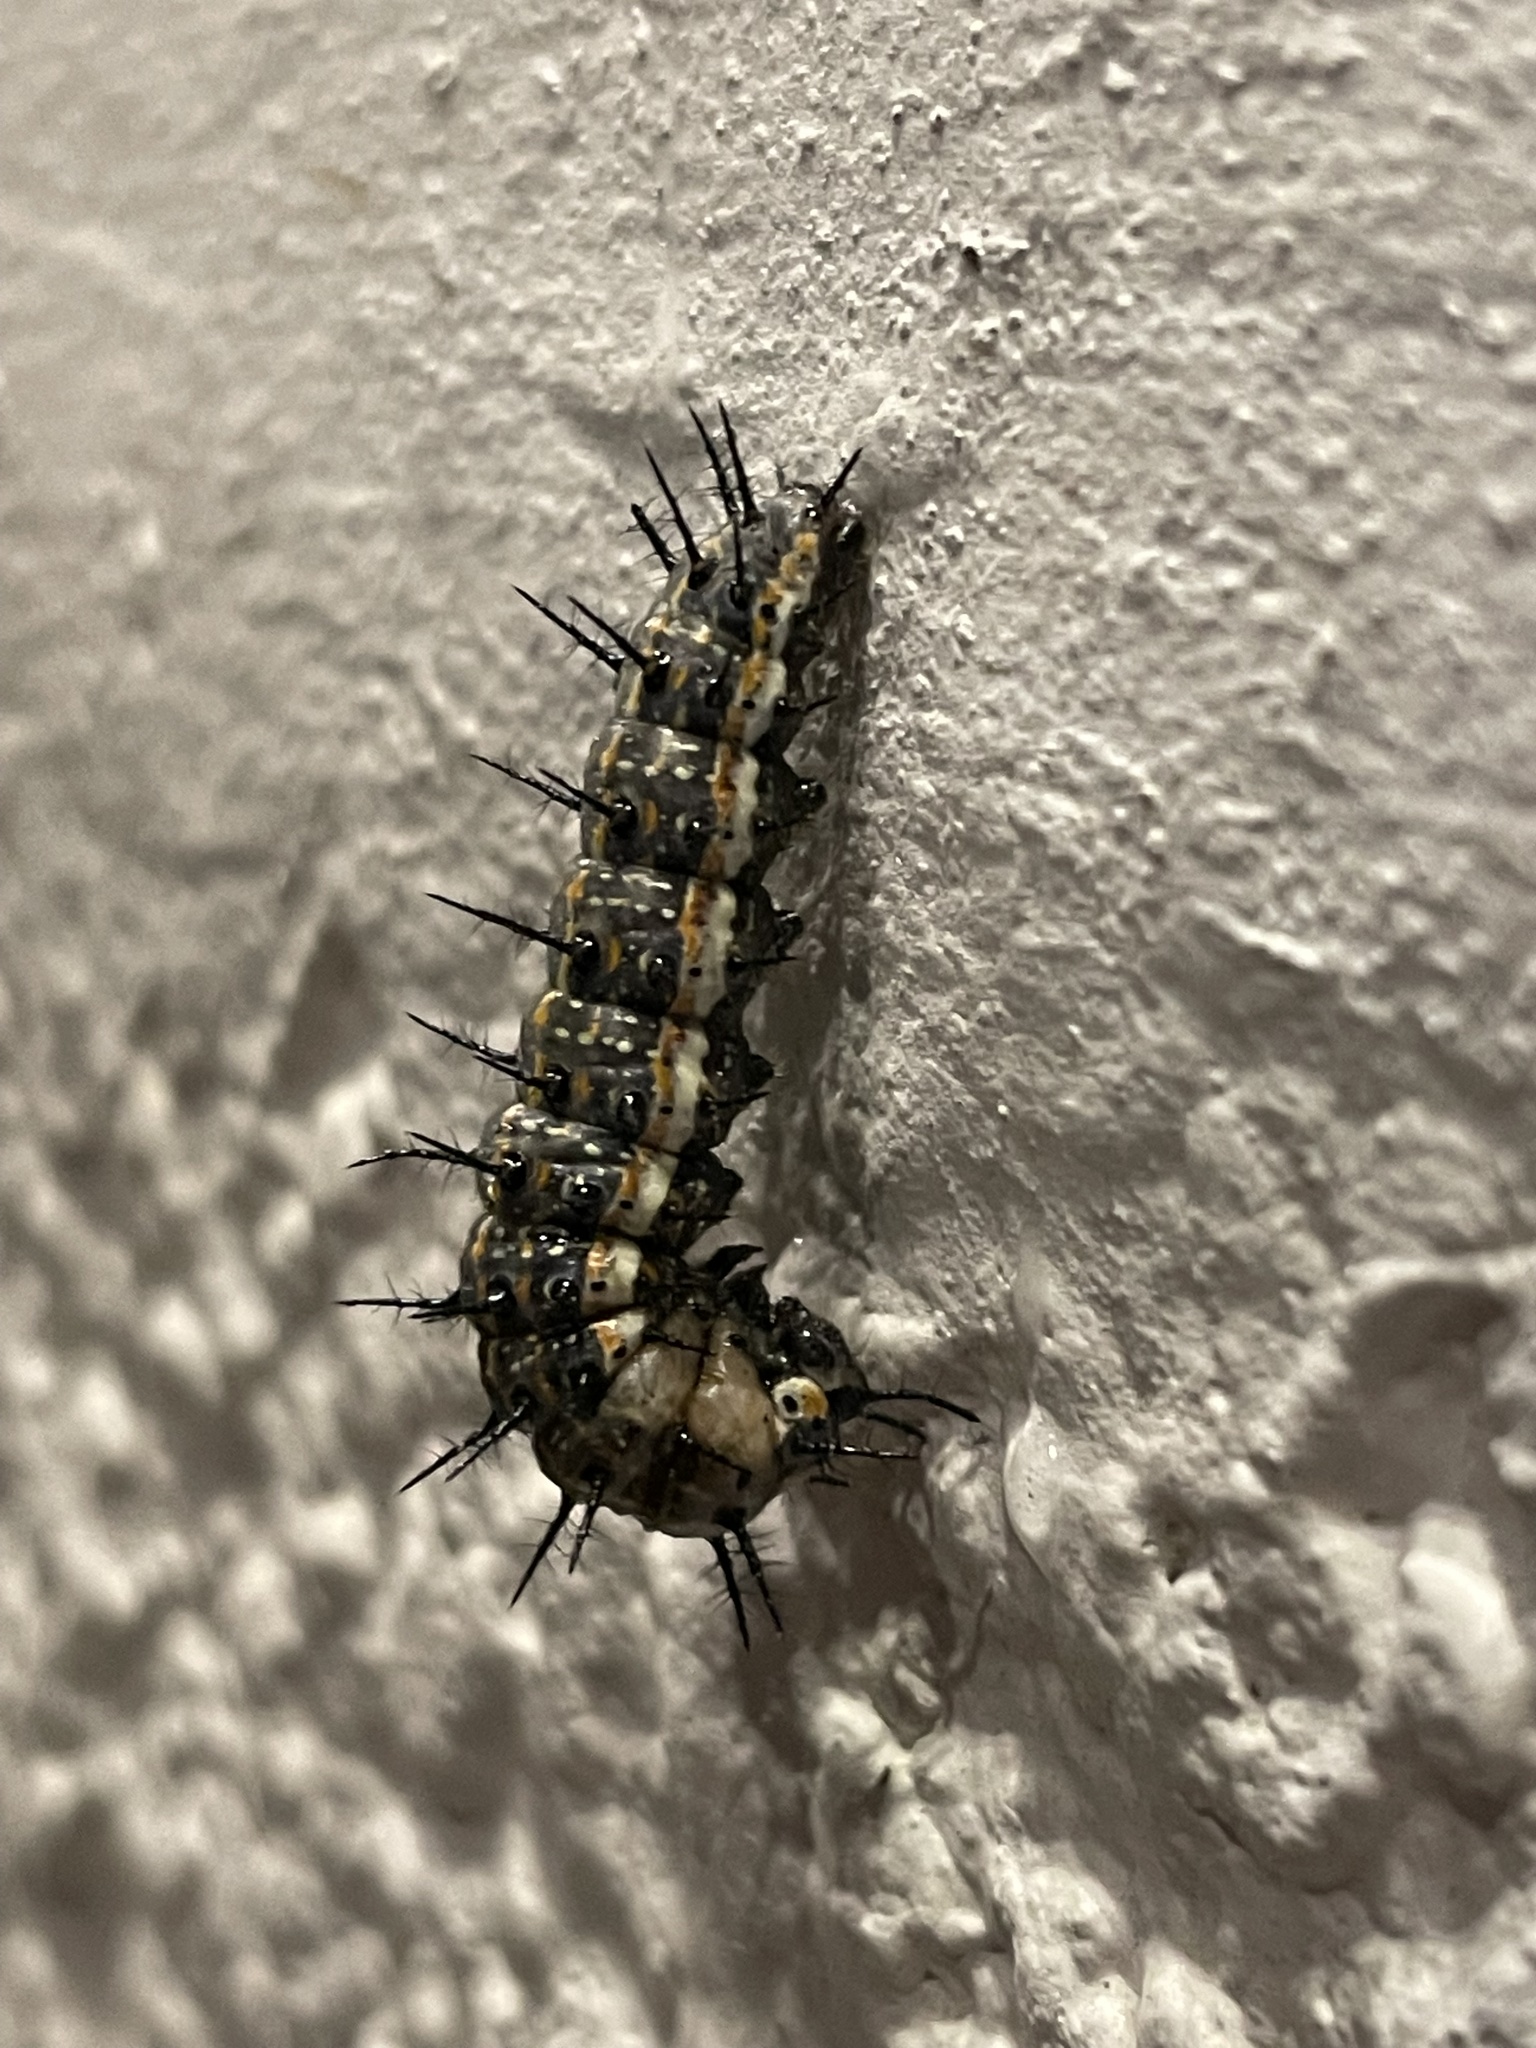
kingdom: Animalia
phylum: Arthropoda
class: Insecta
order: Lepidoptera
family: Nymphalidae
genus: Dione
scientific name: Dione vanillae
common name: Gulf fritillary
